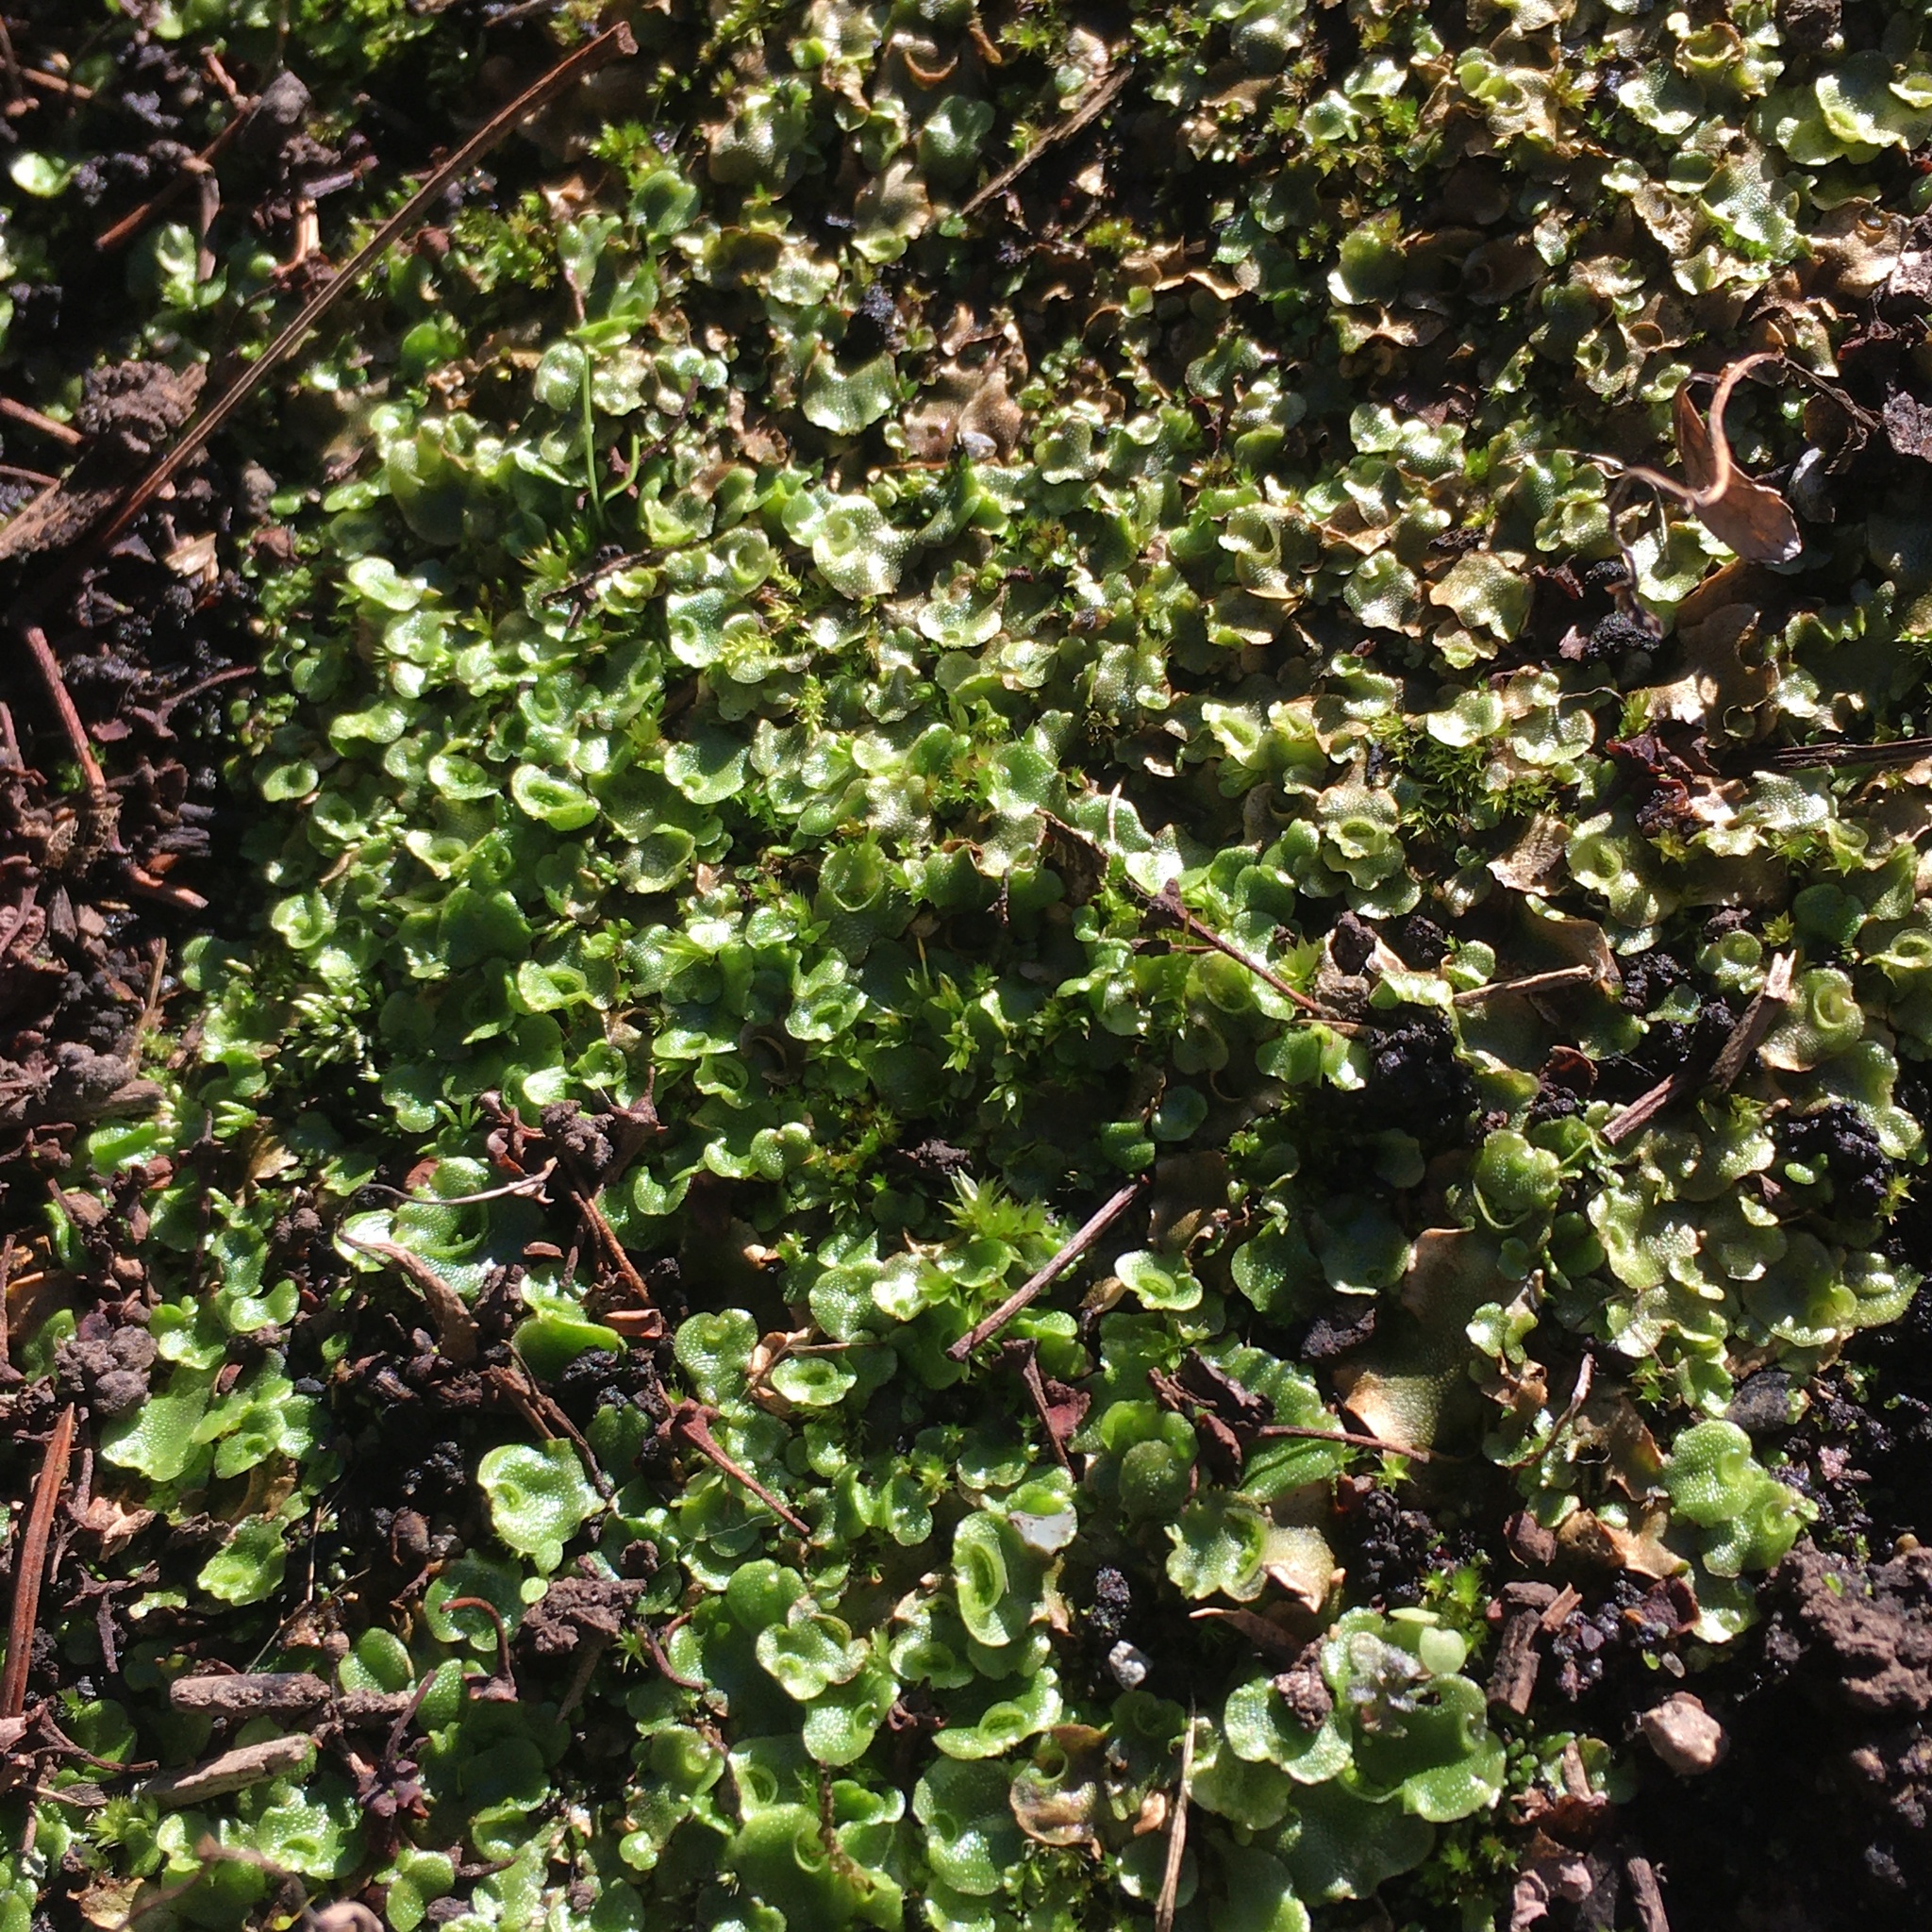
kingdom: Plantae
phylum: Marchantiophyta
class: Marchantiopsida
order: Lunulariales
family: Lunulariaceae
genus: Lunularia
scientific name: Lunularia cruciata
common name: Crescent-cup liverwort
